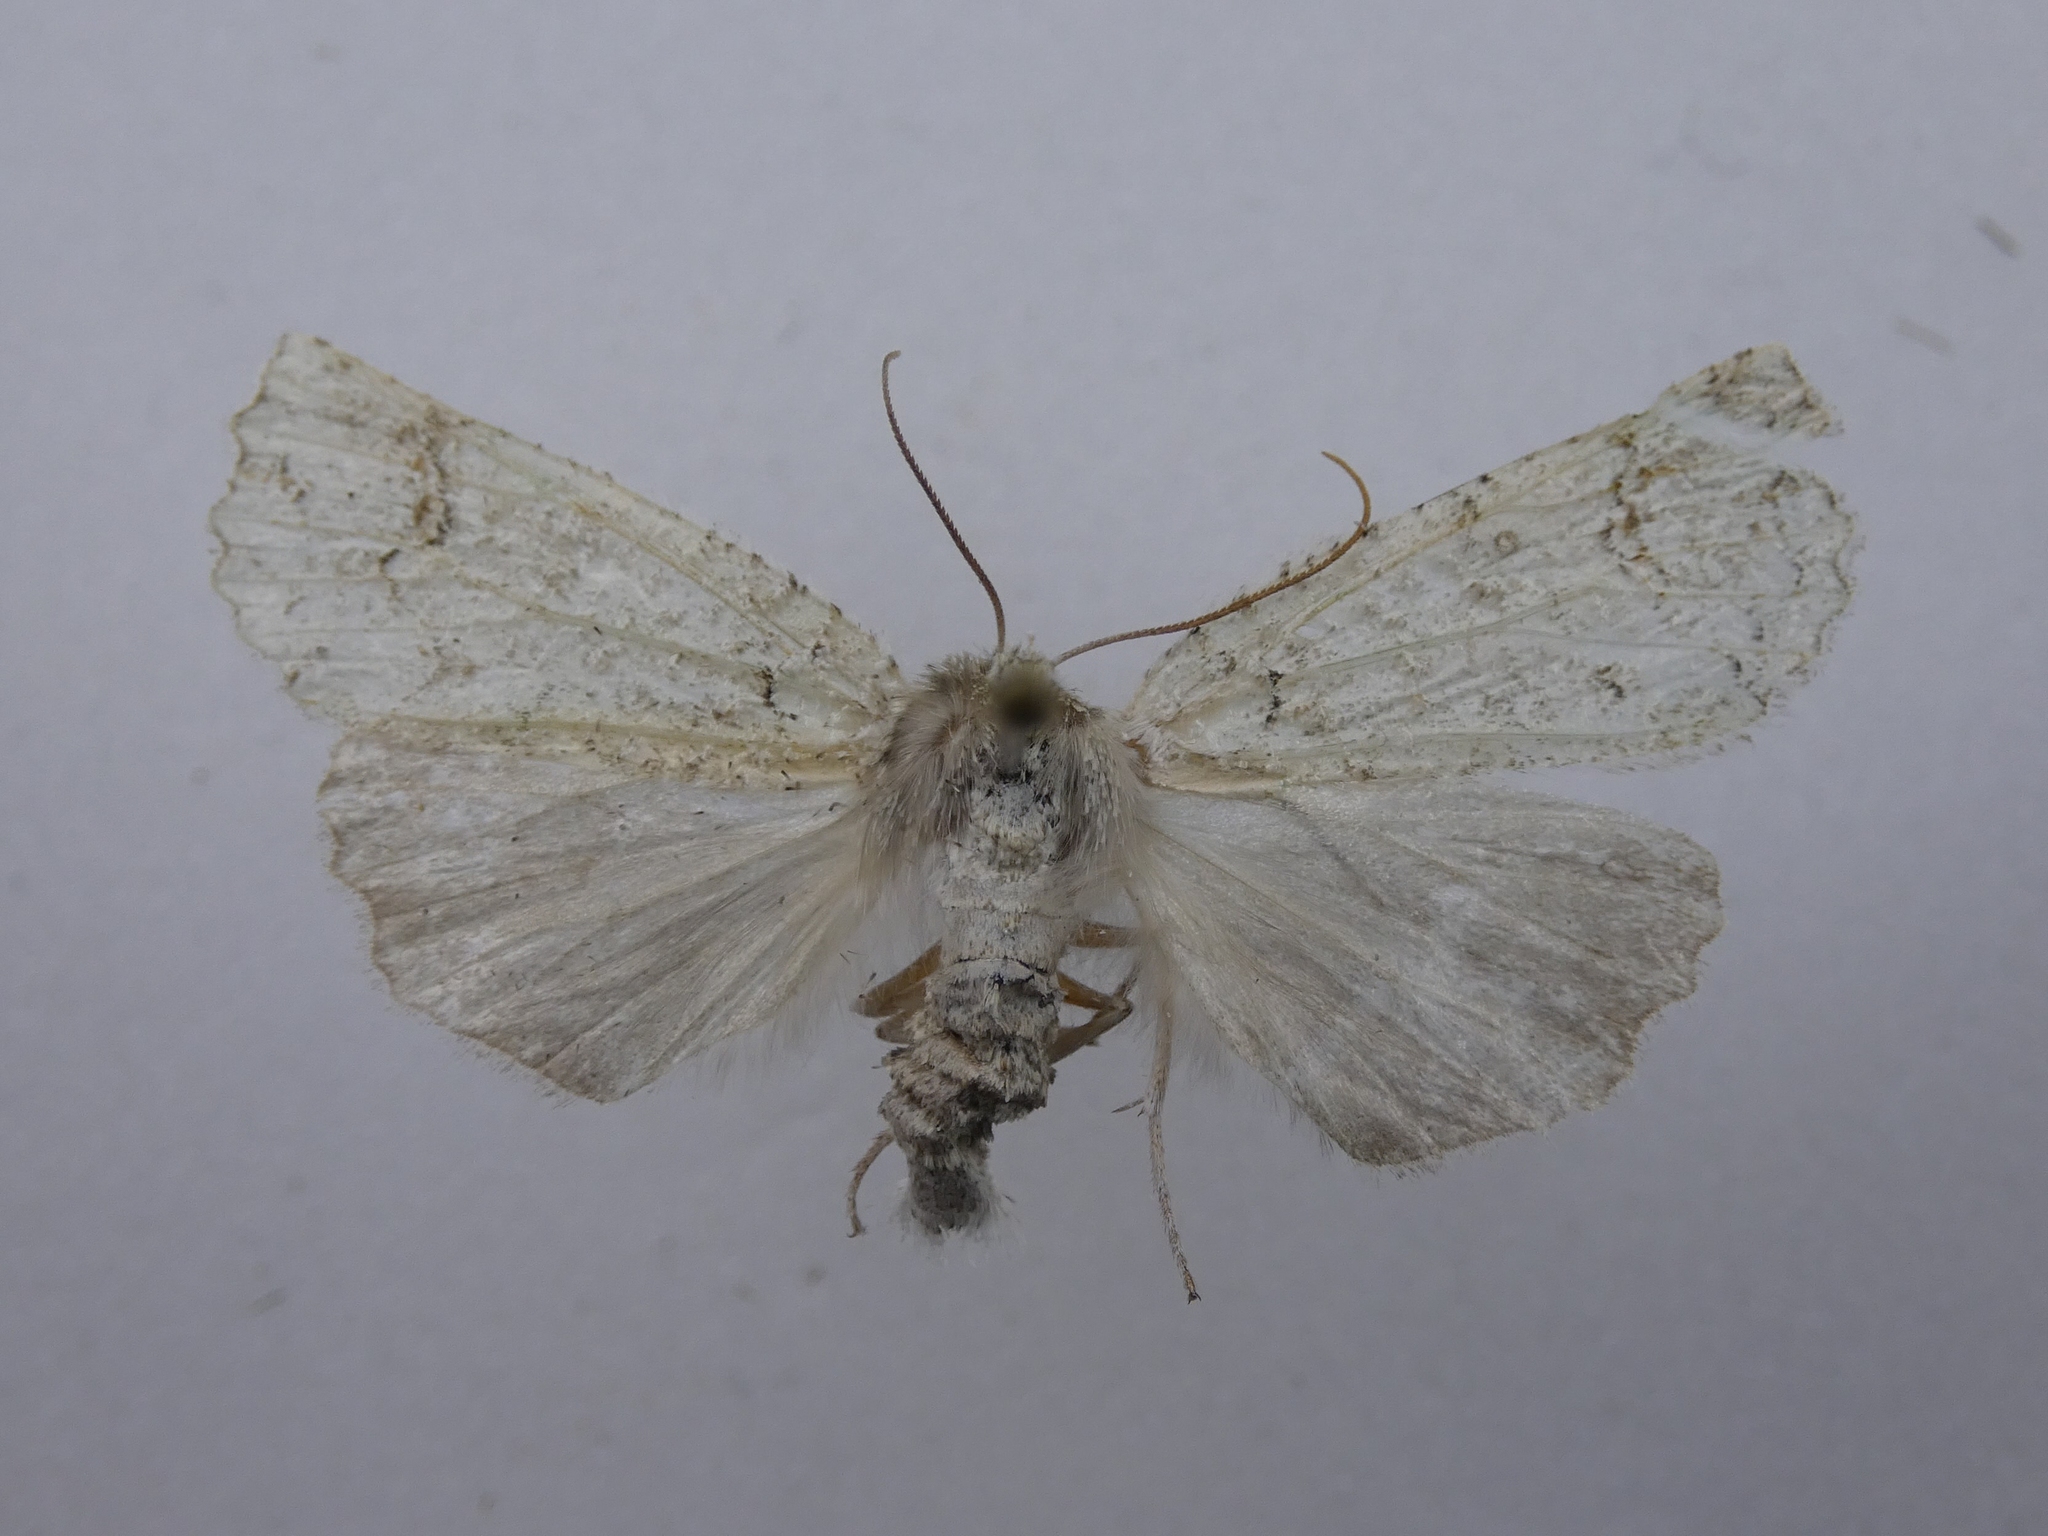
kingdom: Animalia
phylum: Arthropoda
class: Insecta
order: Lepidoptera
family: Geometridae
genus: Declana
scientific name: Declana floccosa
